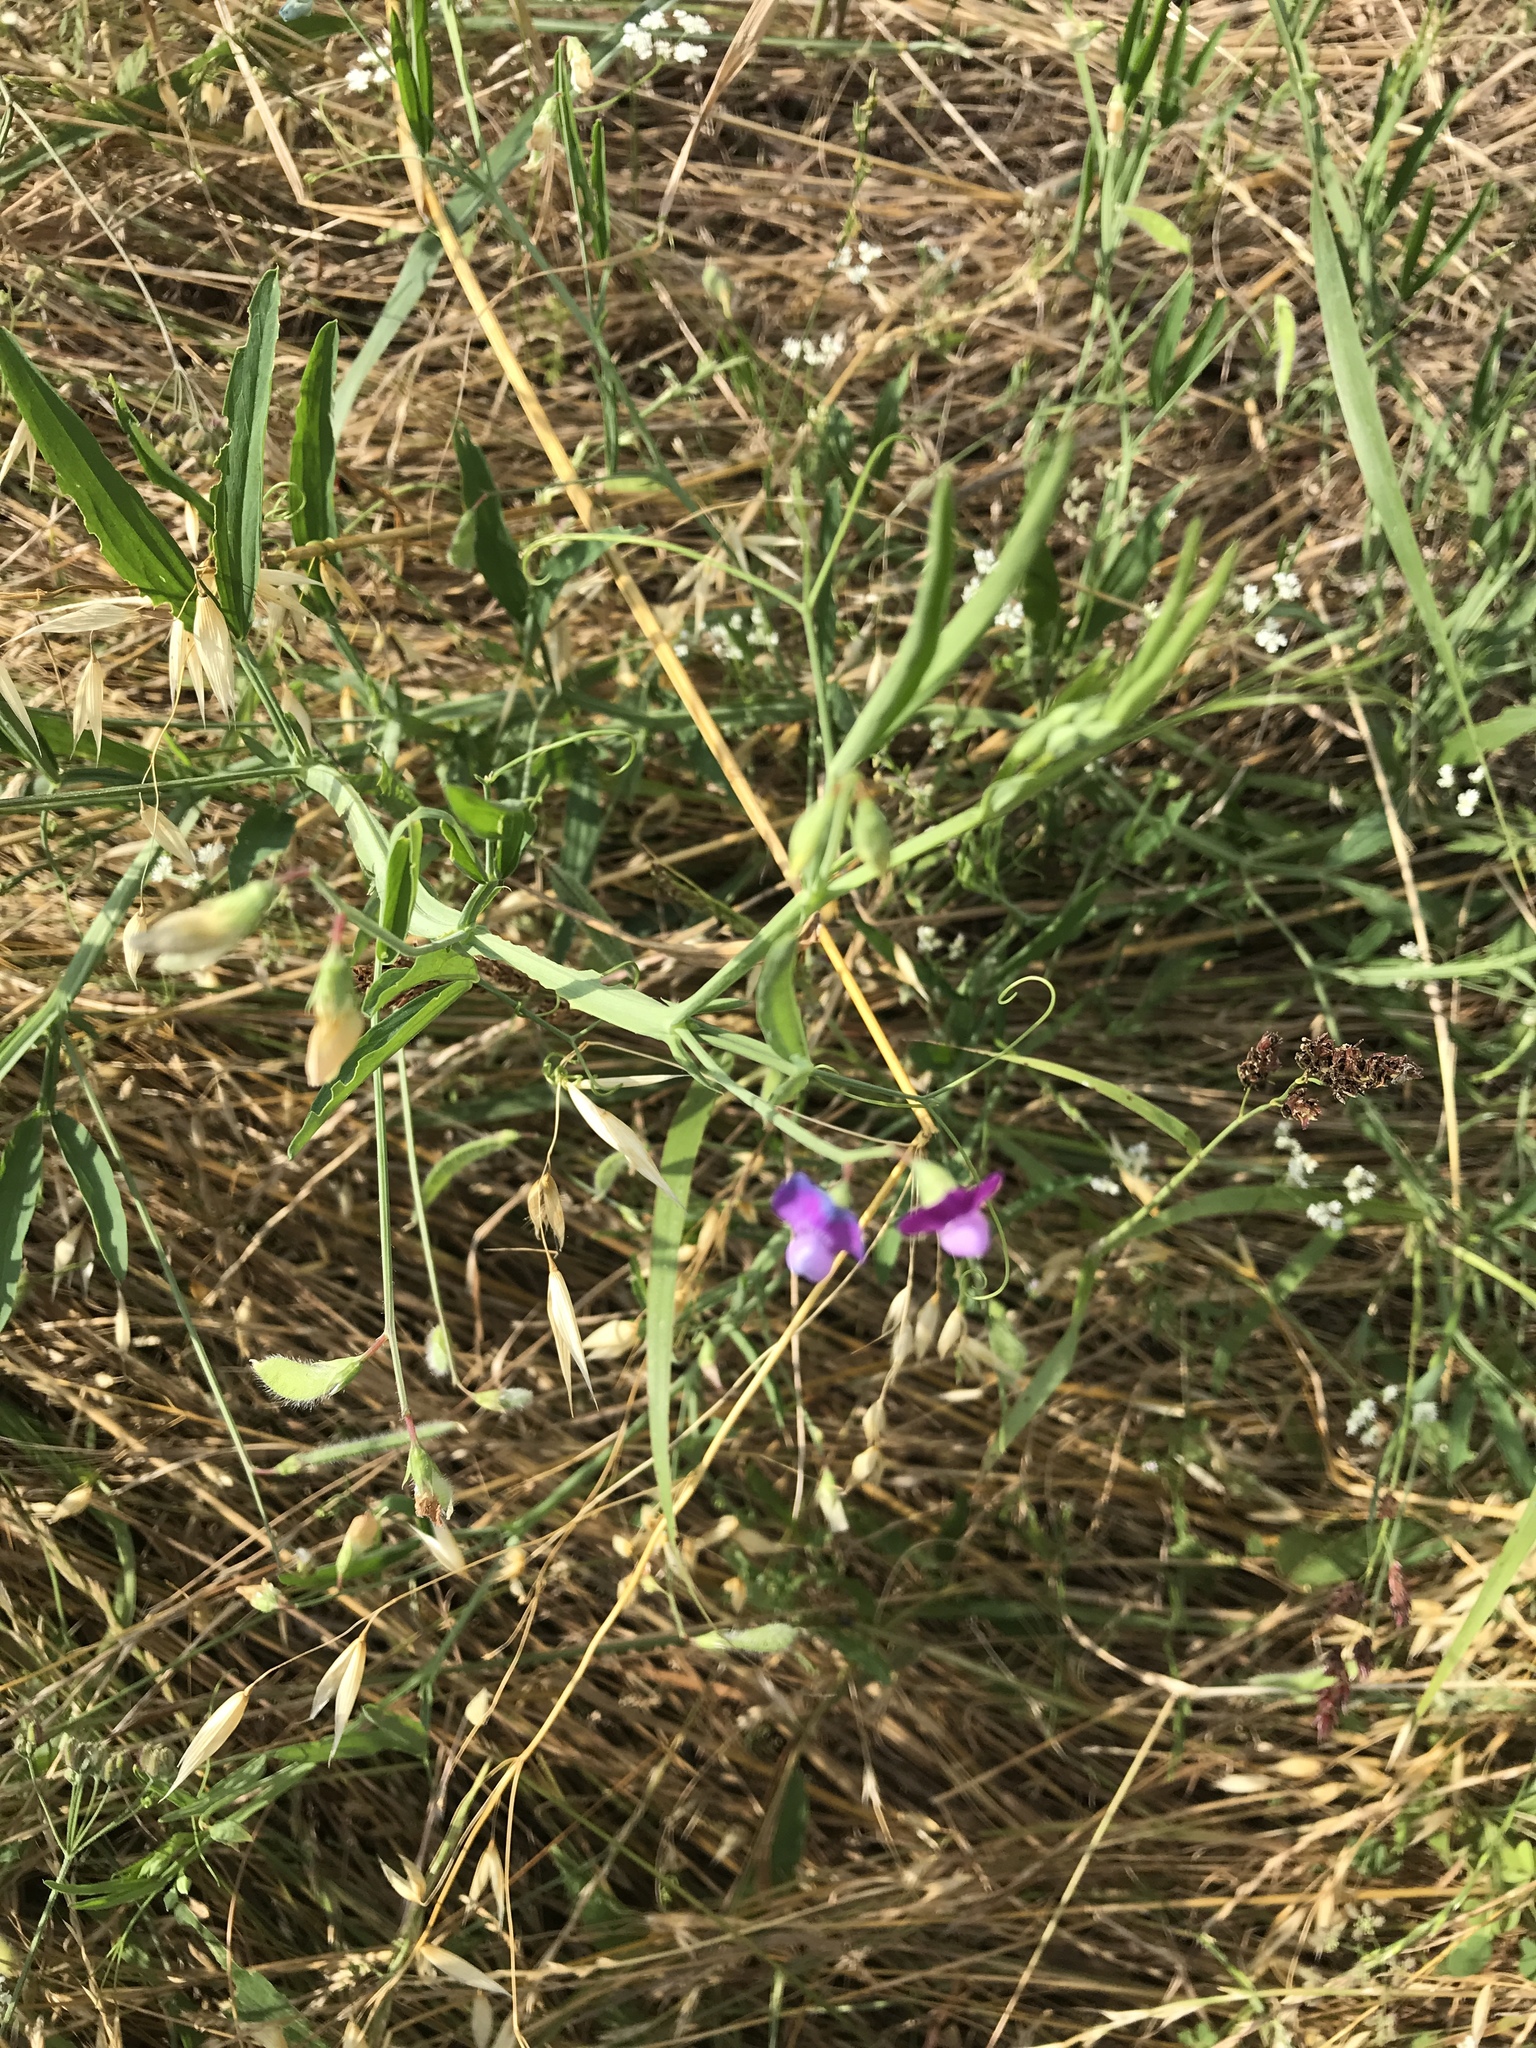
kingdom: Plantae
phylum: Tracheophyta
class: Magnoliopsida
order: Fabales
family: Fabaceae
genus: Lathyrus
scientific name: Lathyrus hirsutus
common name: Hairy vetchling
